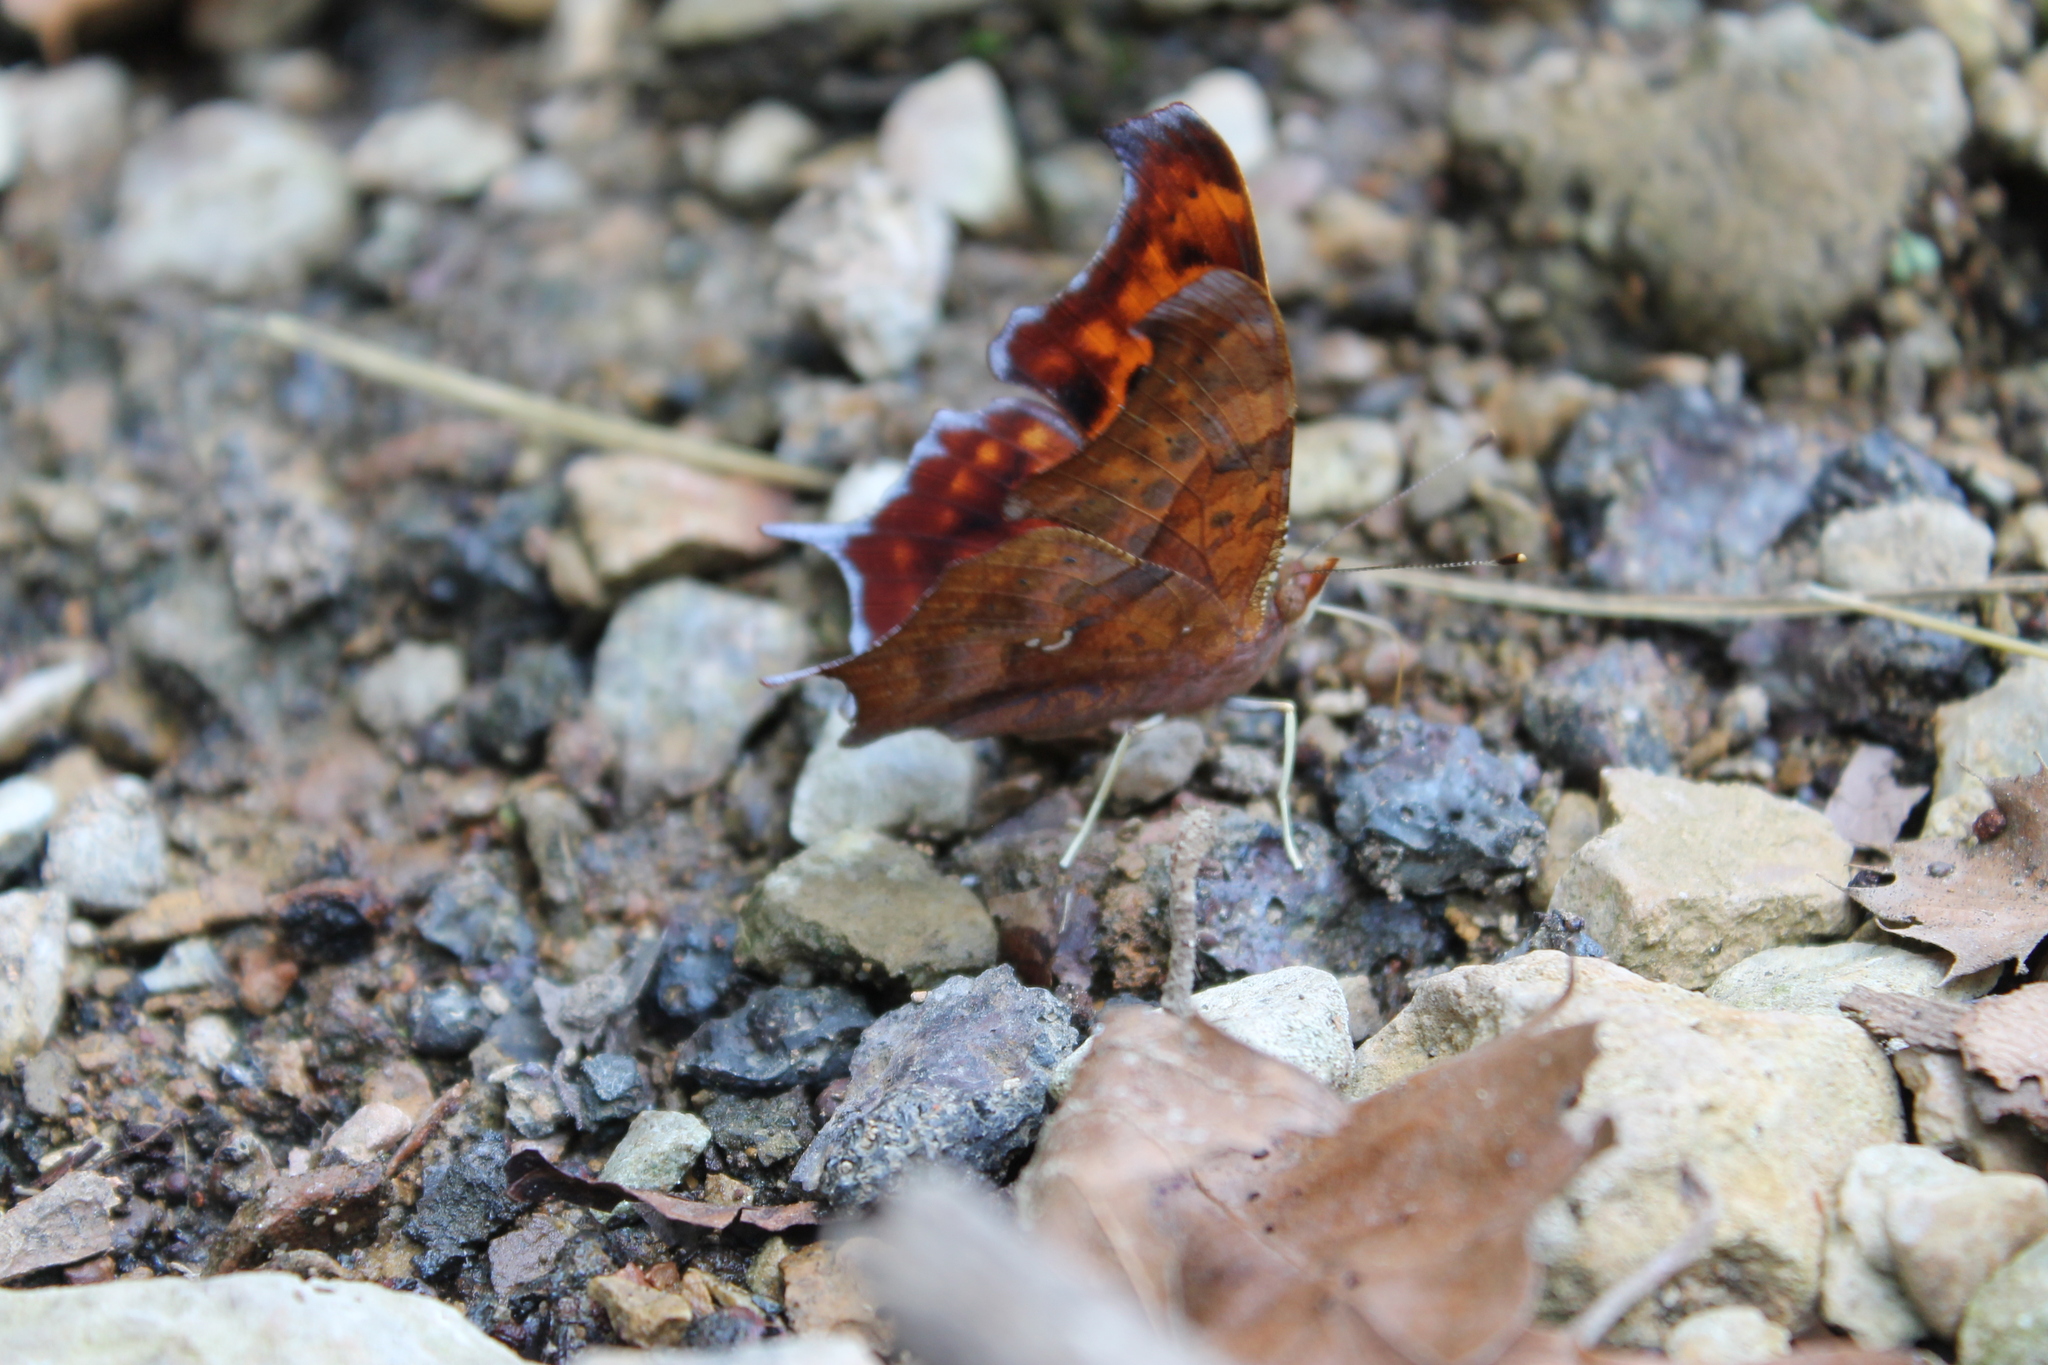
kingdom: Animalia
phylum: Arthropoda
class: Insecta
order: Lepidoptera
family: Nymphalidae
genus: Polygonia
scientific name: Polygonia interrogationis
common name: Question mark
